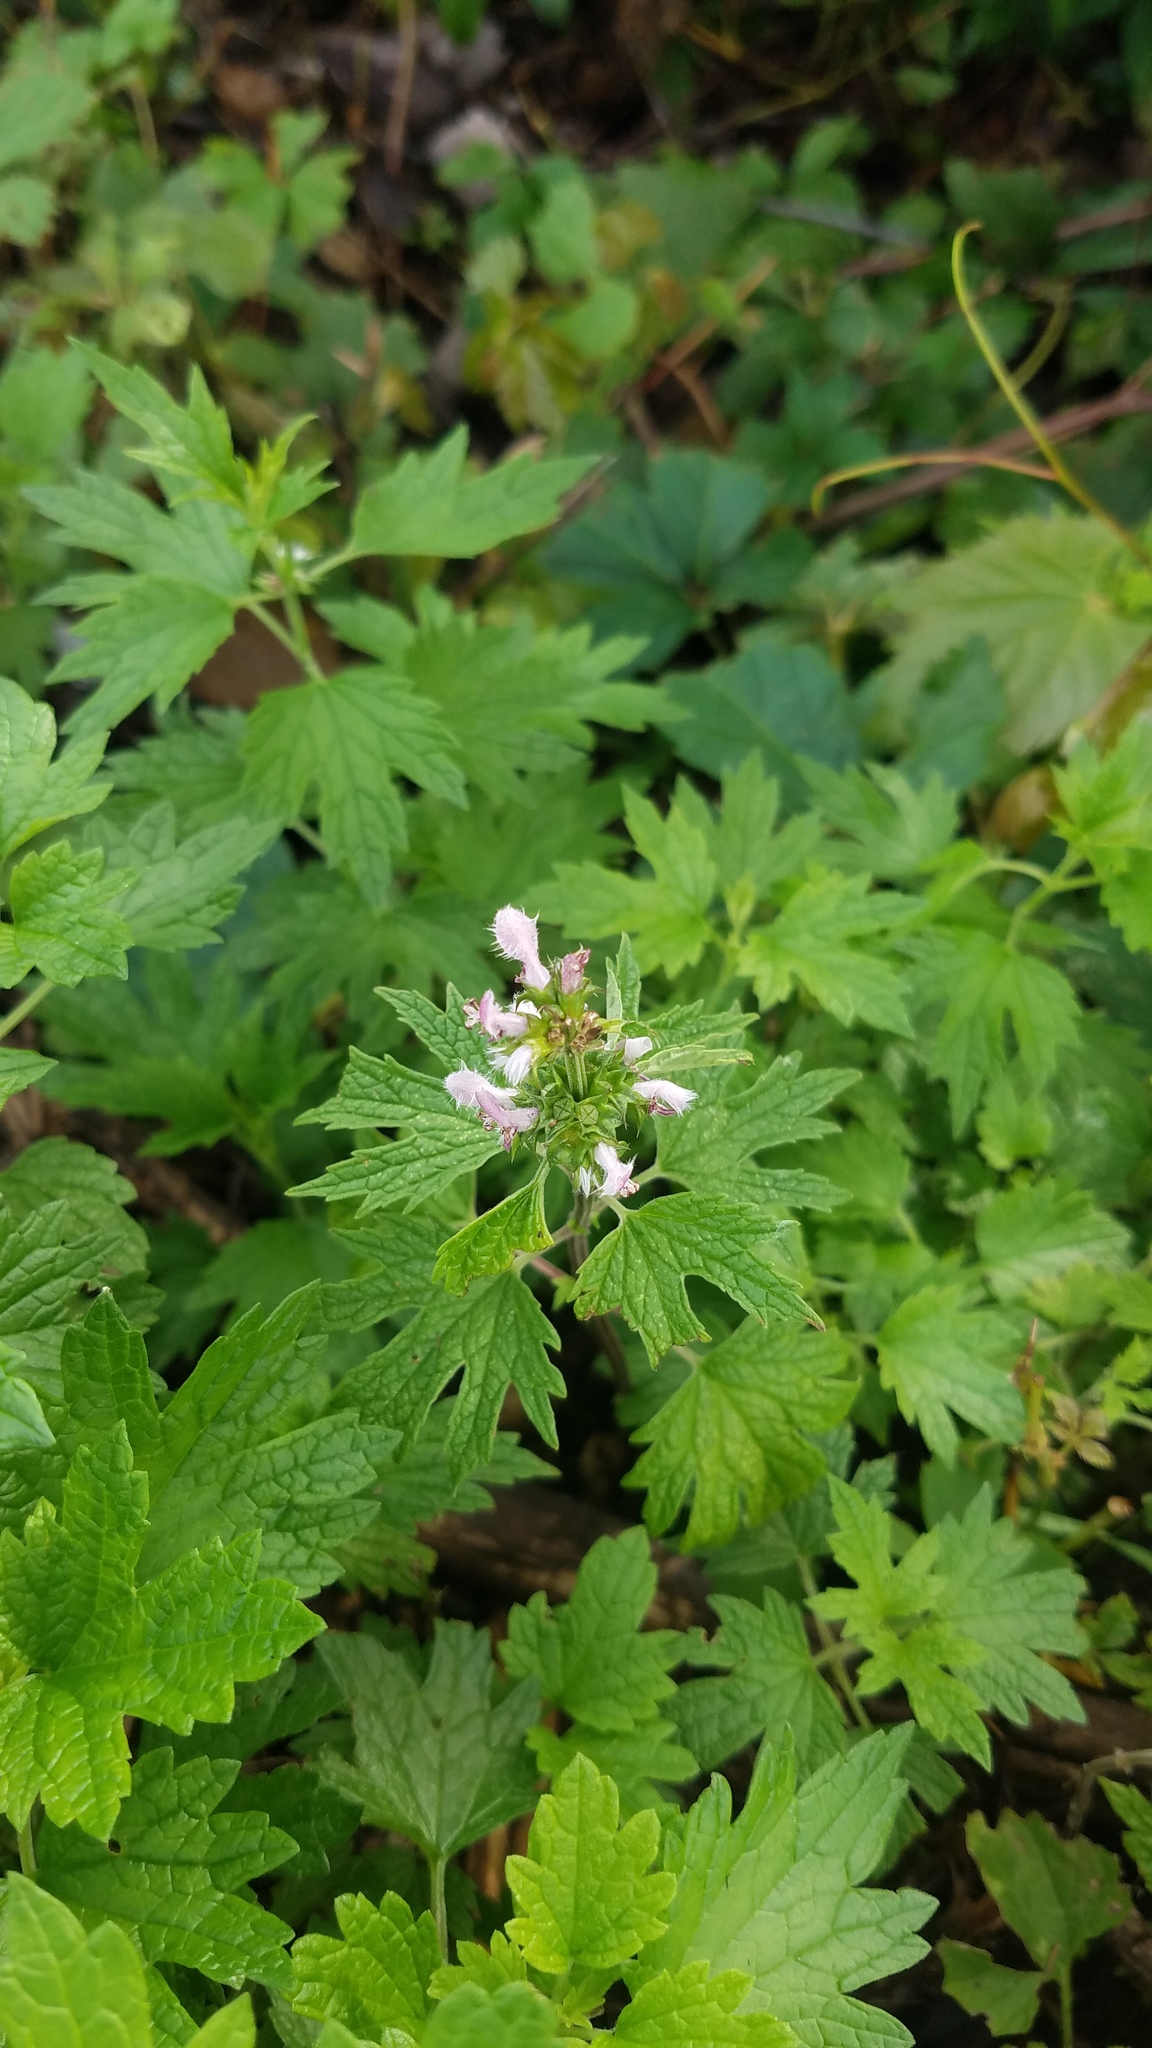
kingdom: Plantae
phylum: Tracheophyta
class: Magnoliopsida
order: Lamiales
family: Lamiaceae
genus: Leonurus
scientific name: Leonurus cardiaca
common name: Motherwort
